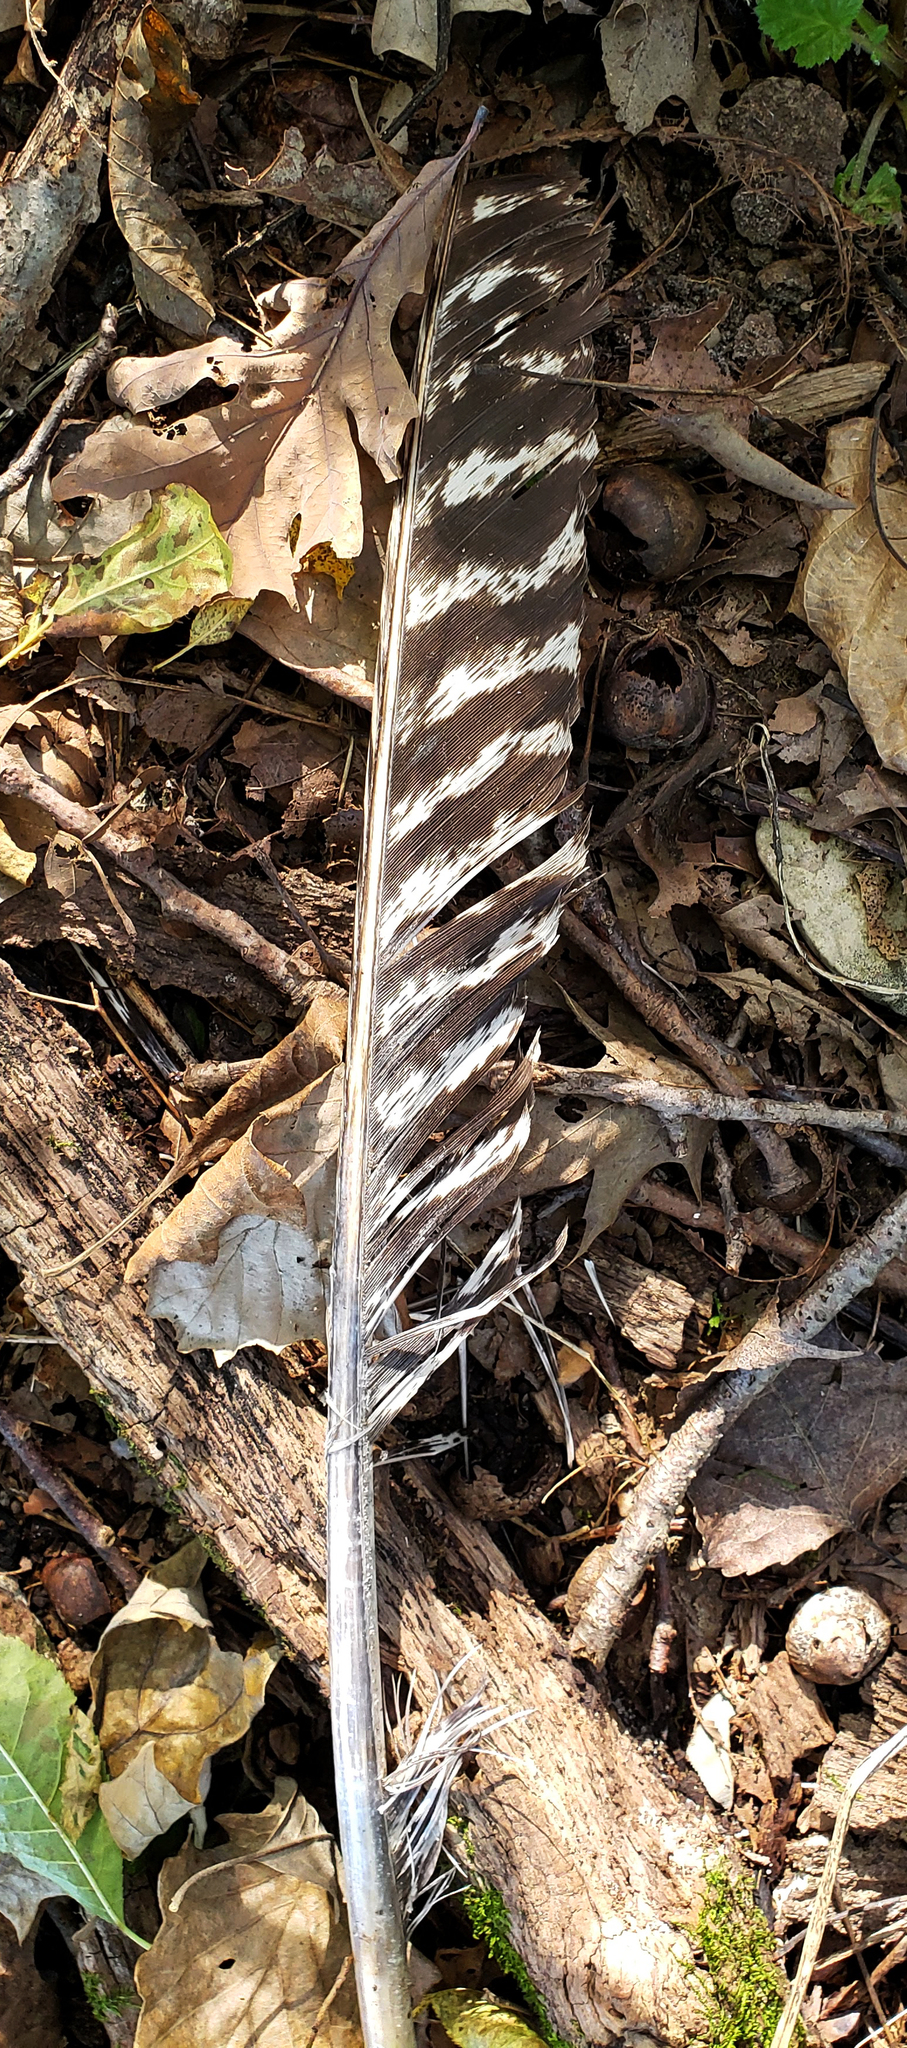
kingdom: Animalia
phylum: Chordata
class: Aves
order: Galliformes
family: Phasianidae
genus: Meleagris
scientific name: Meleagris gallopavo
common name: Wild turkey
